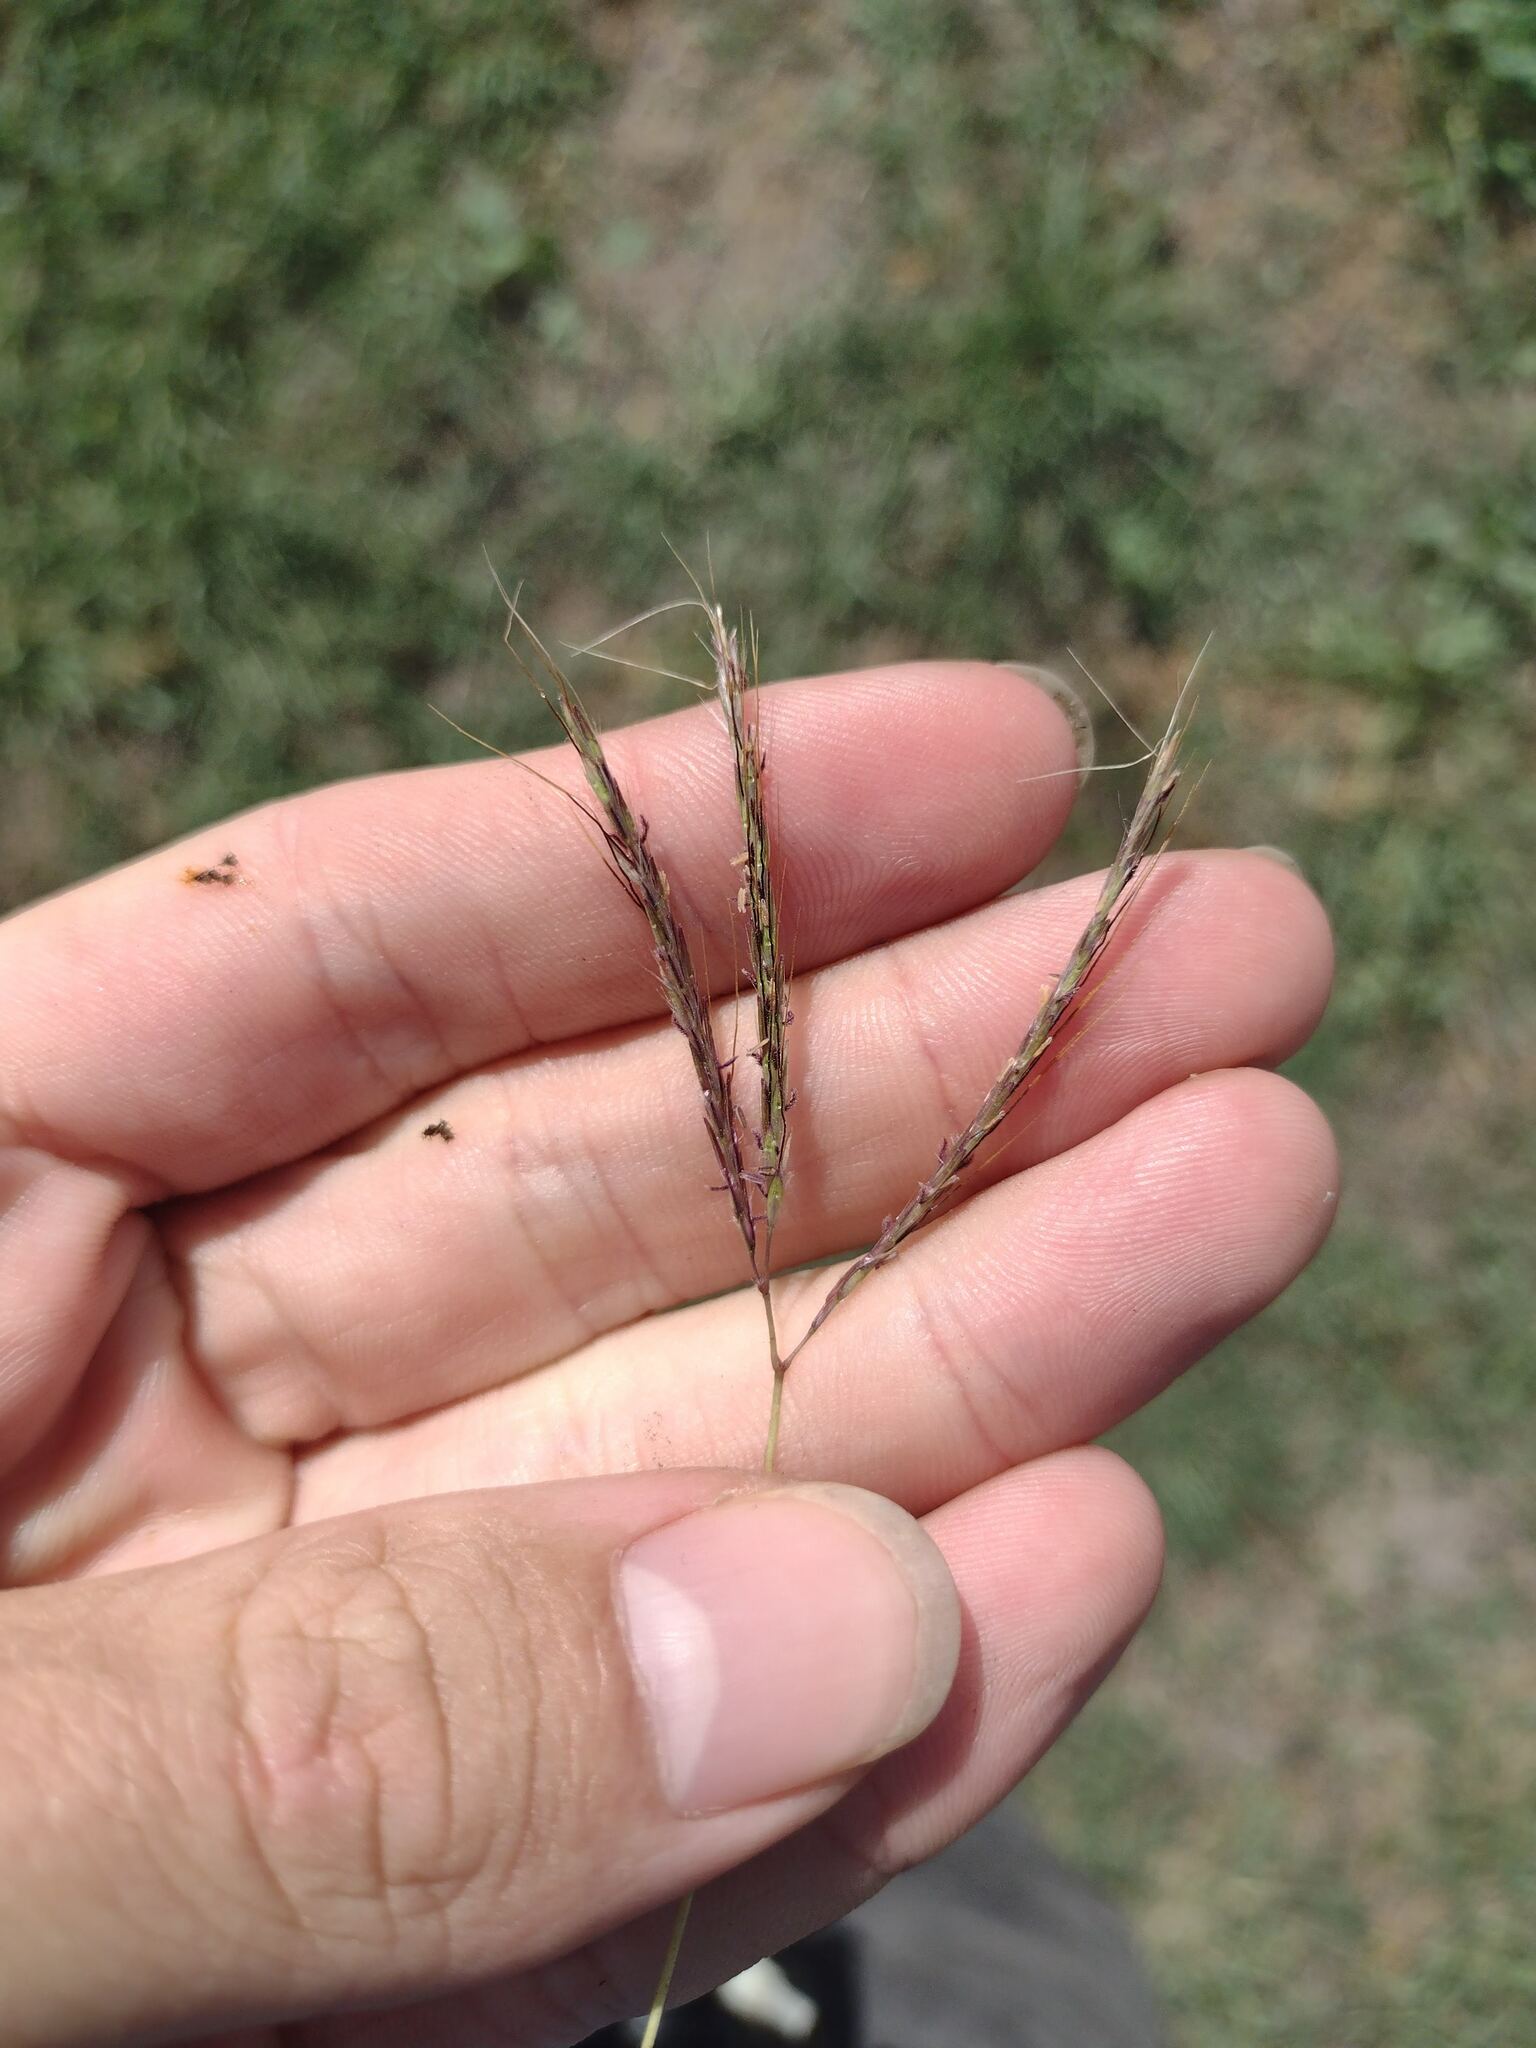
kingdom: Plantae
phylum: Tracheophyta
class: Liliopsida
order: Poales
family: Poaceae
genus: Bothriochloa
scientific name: Bothriochloa pertusa
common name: Pitted beardgrass
